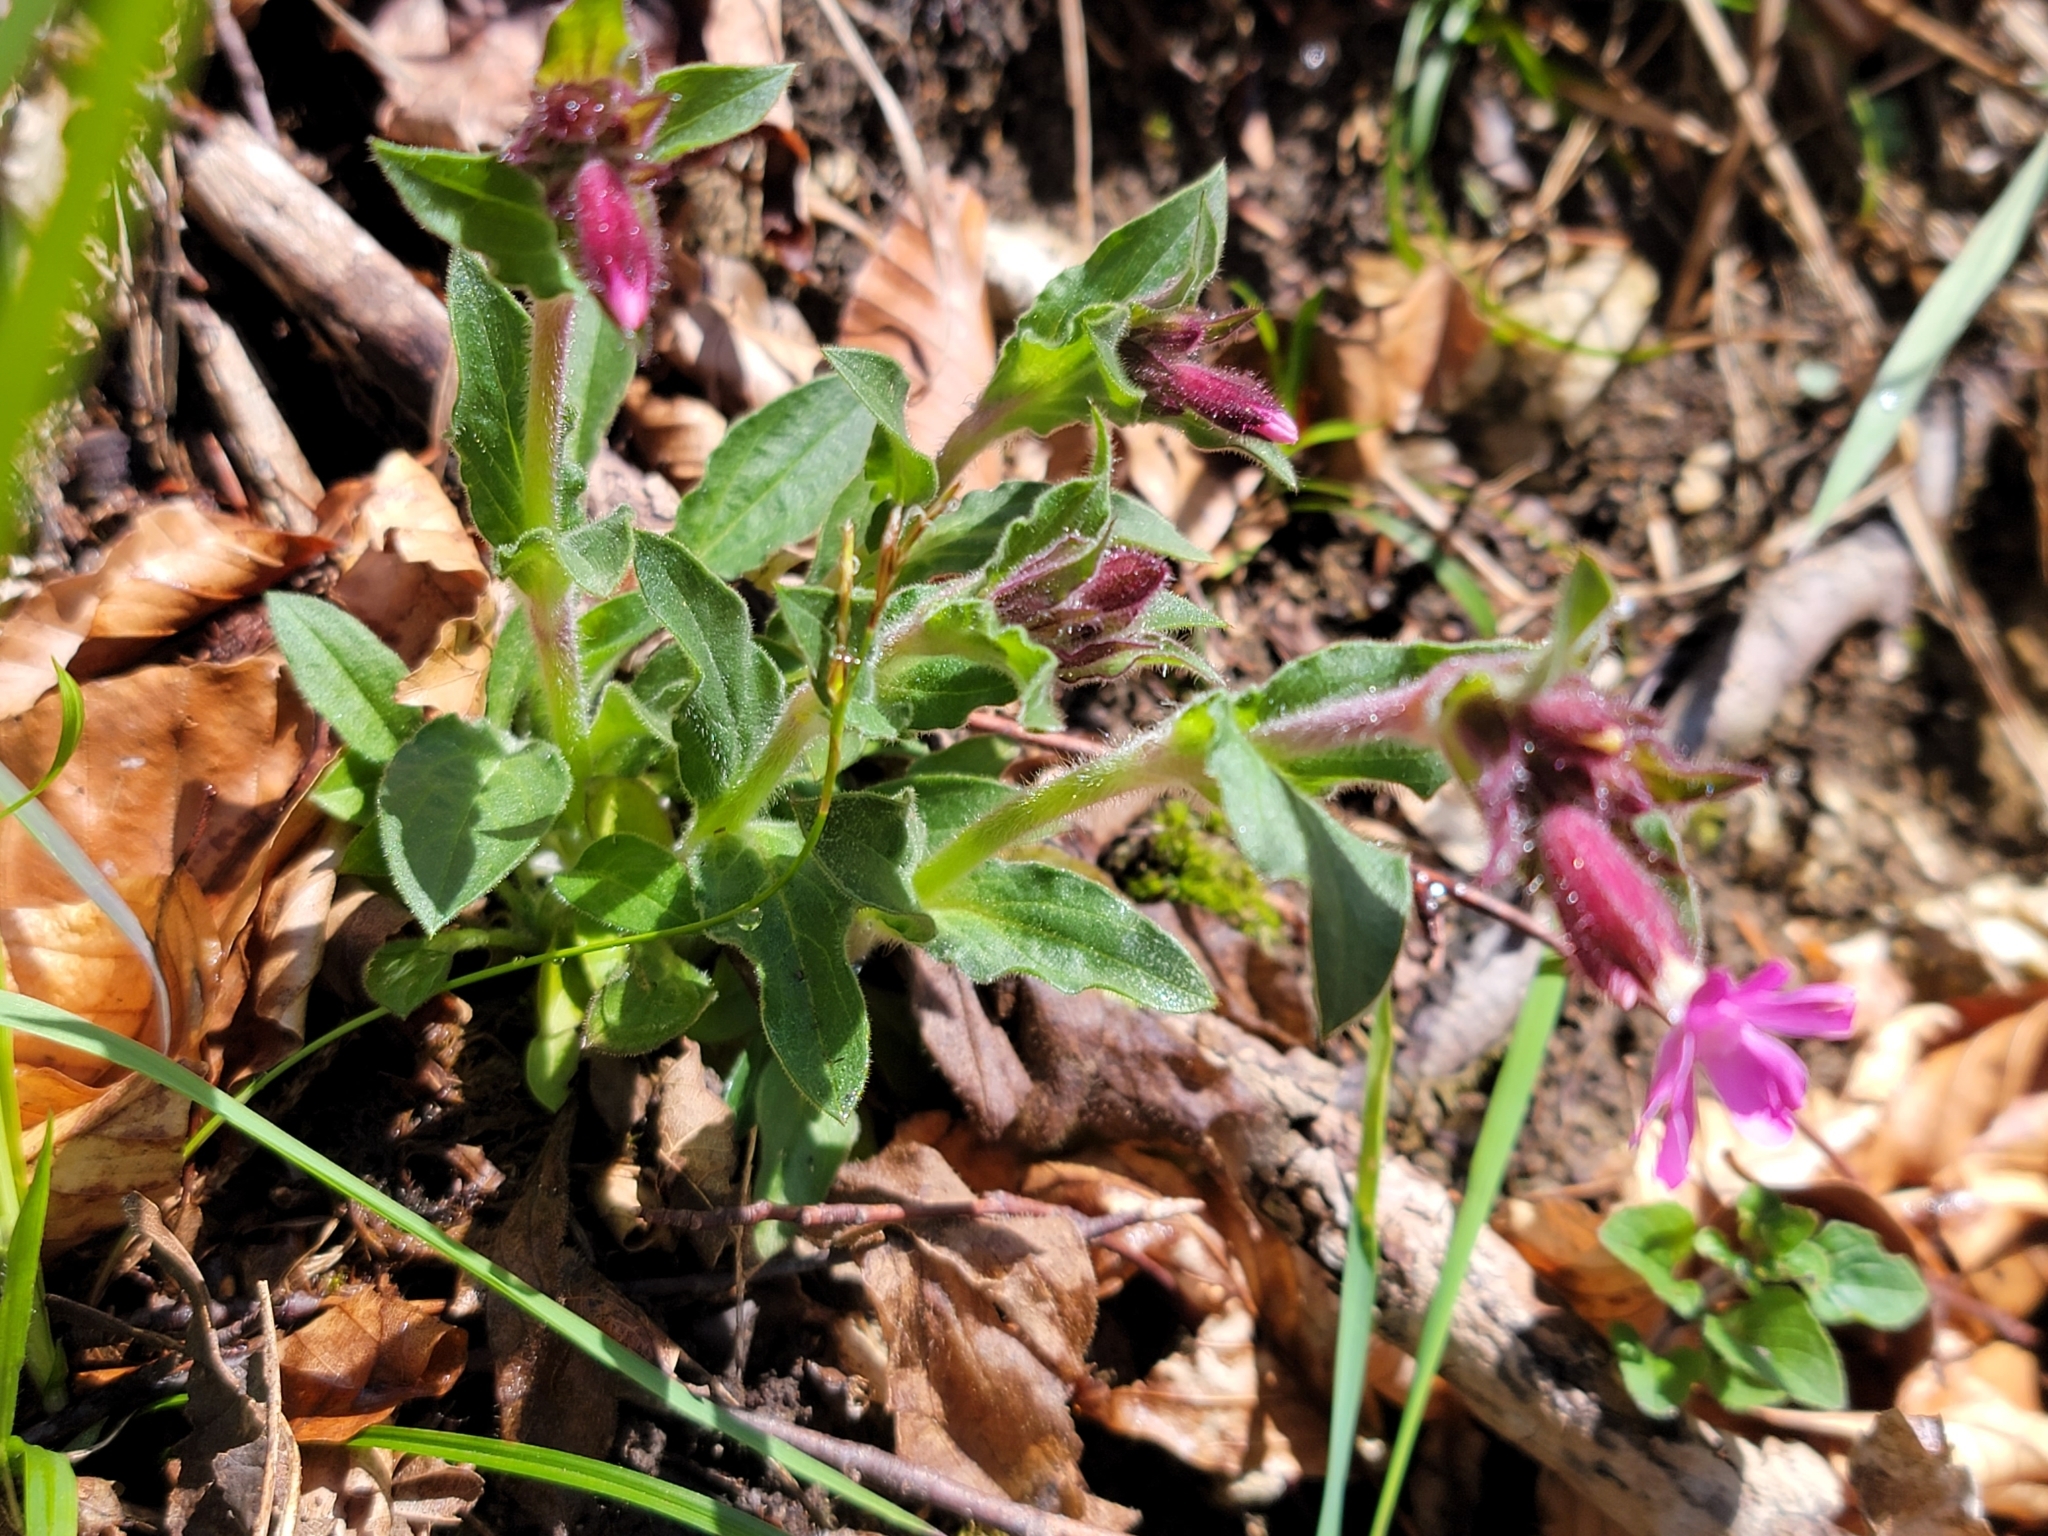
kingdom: Plantae
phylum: Tracheophyta
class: Magnoliopsida
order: Caryophyllales
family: Caryophyllaceae
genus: Silene
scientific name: Silene dioica
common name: Red campion
